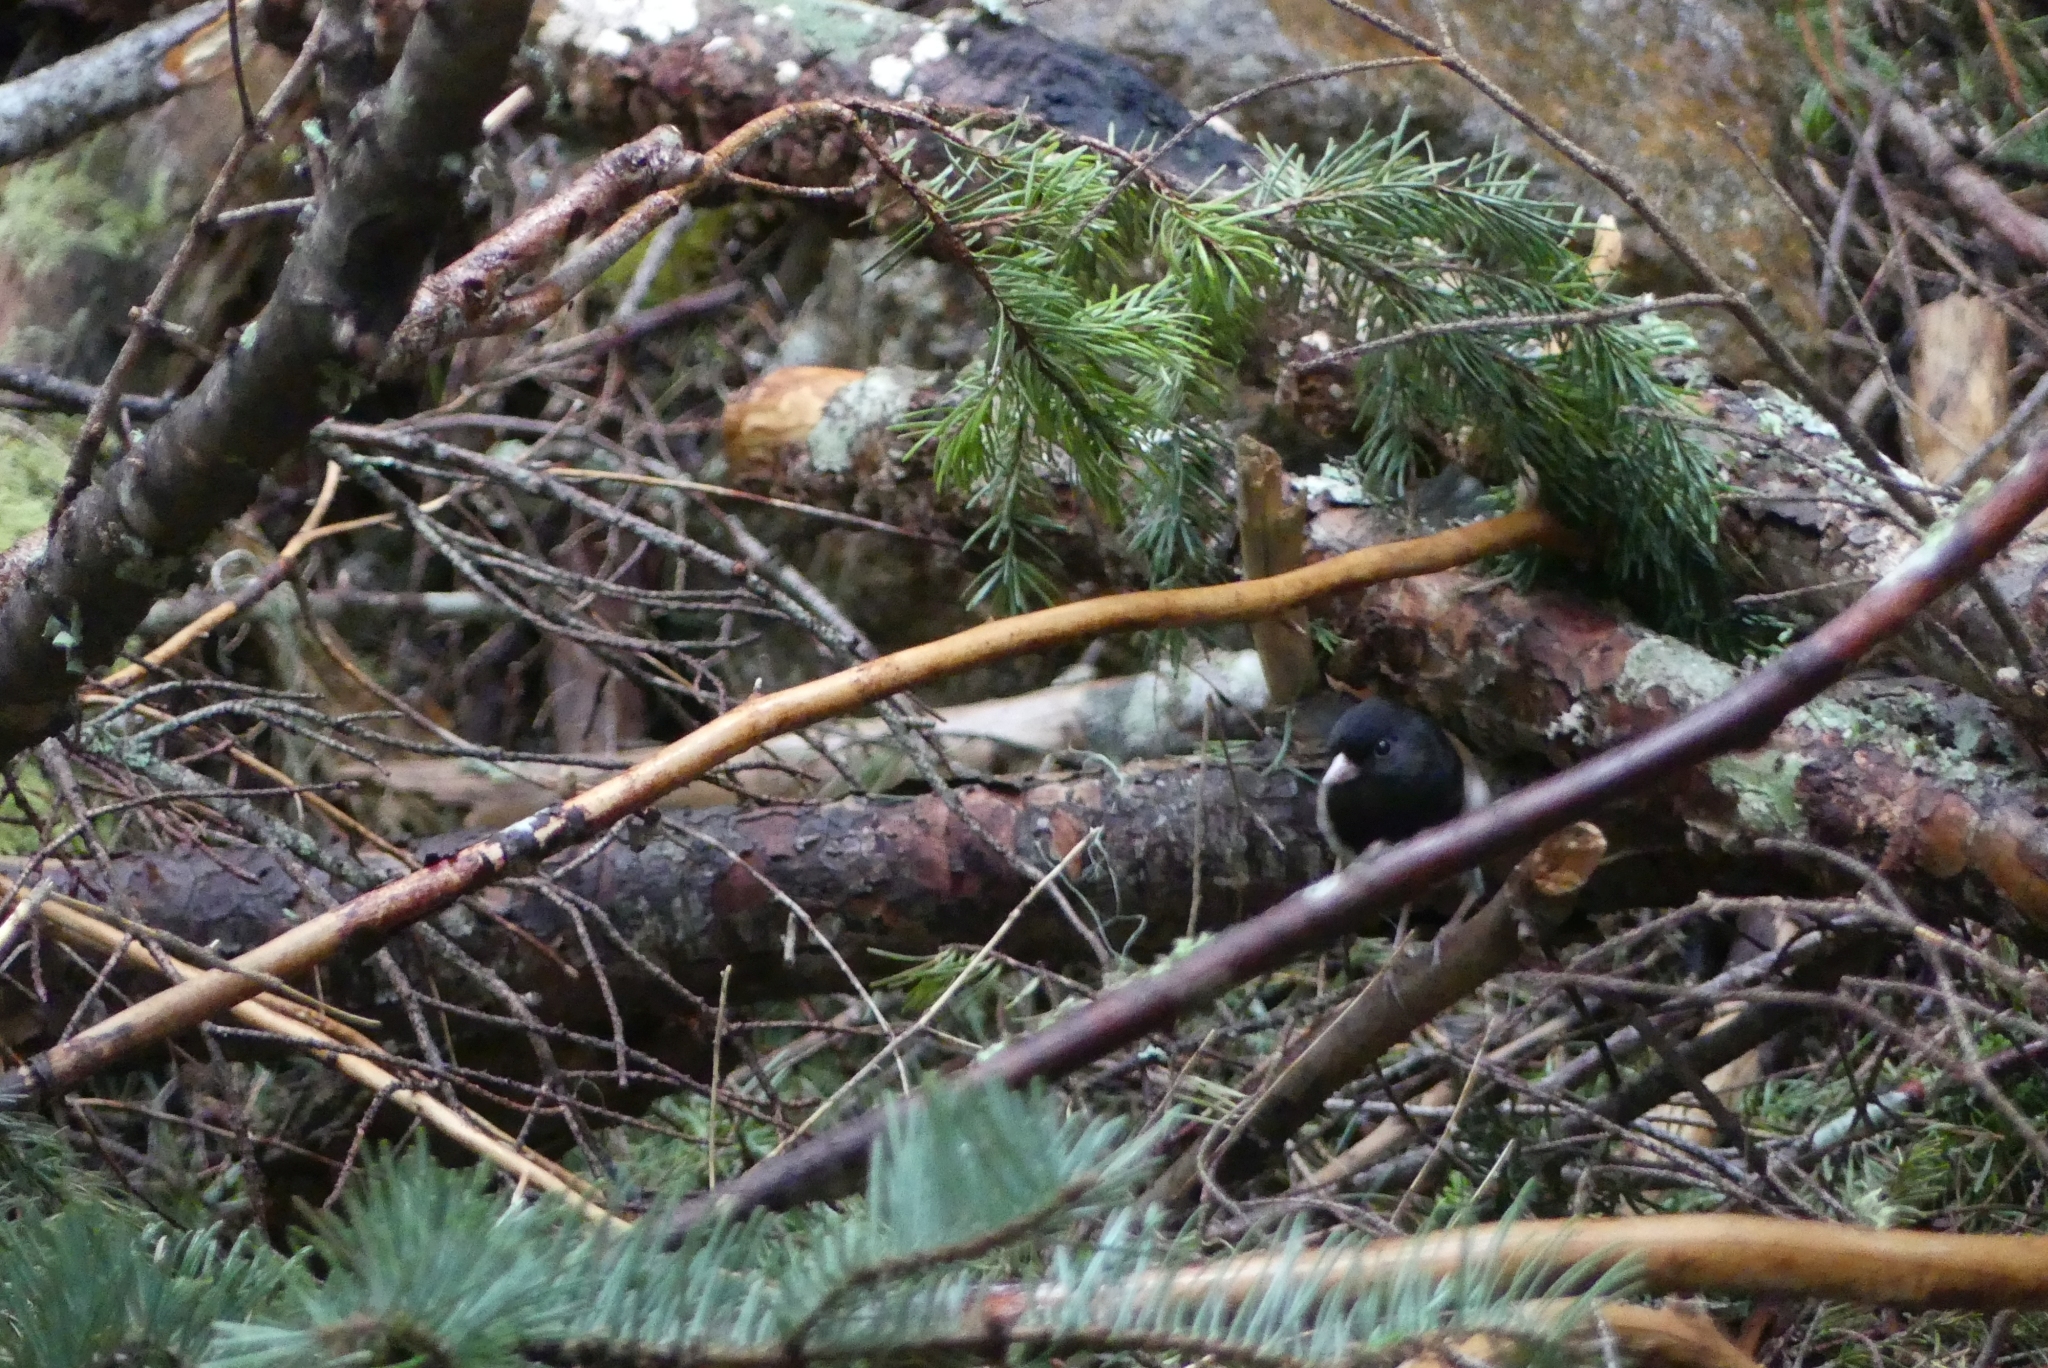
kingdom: Animalia
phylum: Chordata
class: Aves
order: Passeriformes
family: Passerellidae
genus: Junco
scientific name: Junco hyemalis
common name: Dark-eyed junco
